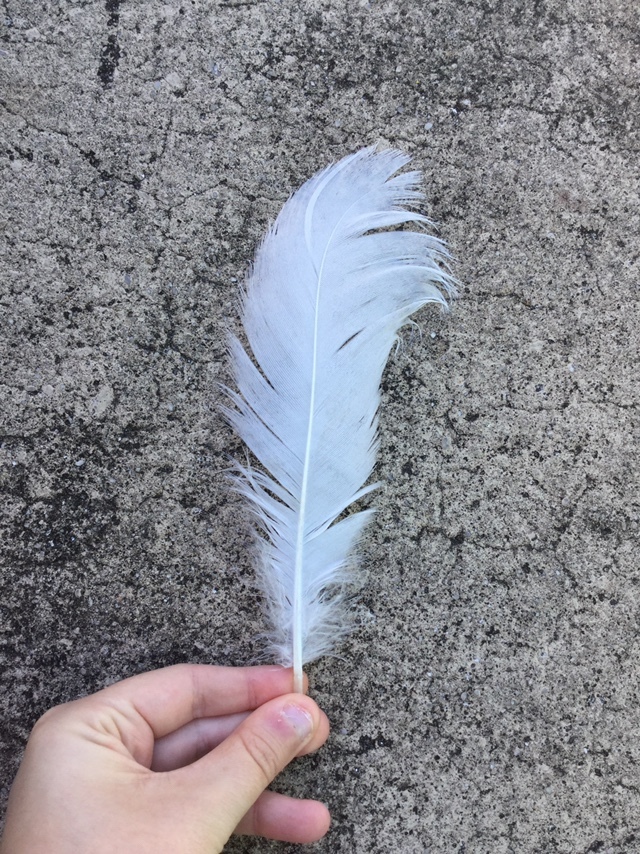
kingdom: Animalia
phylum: Chordata
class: Aves
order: Ciconiiformes
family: Ciconiidae
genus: Mycteria
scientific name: Mycteria americana
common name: Wood stork
